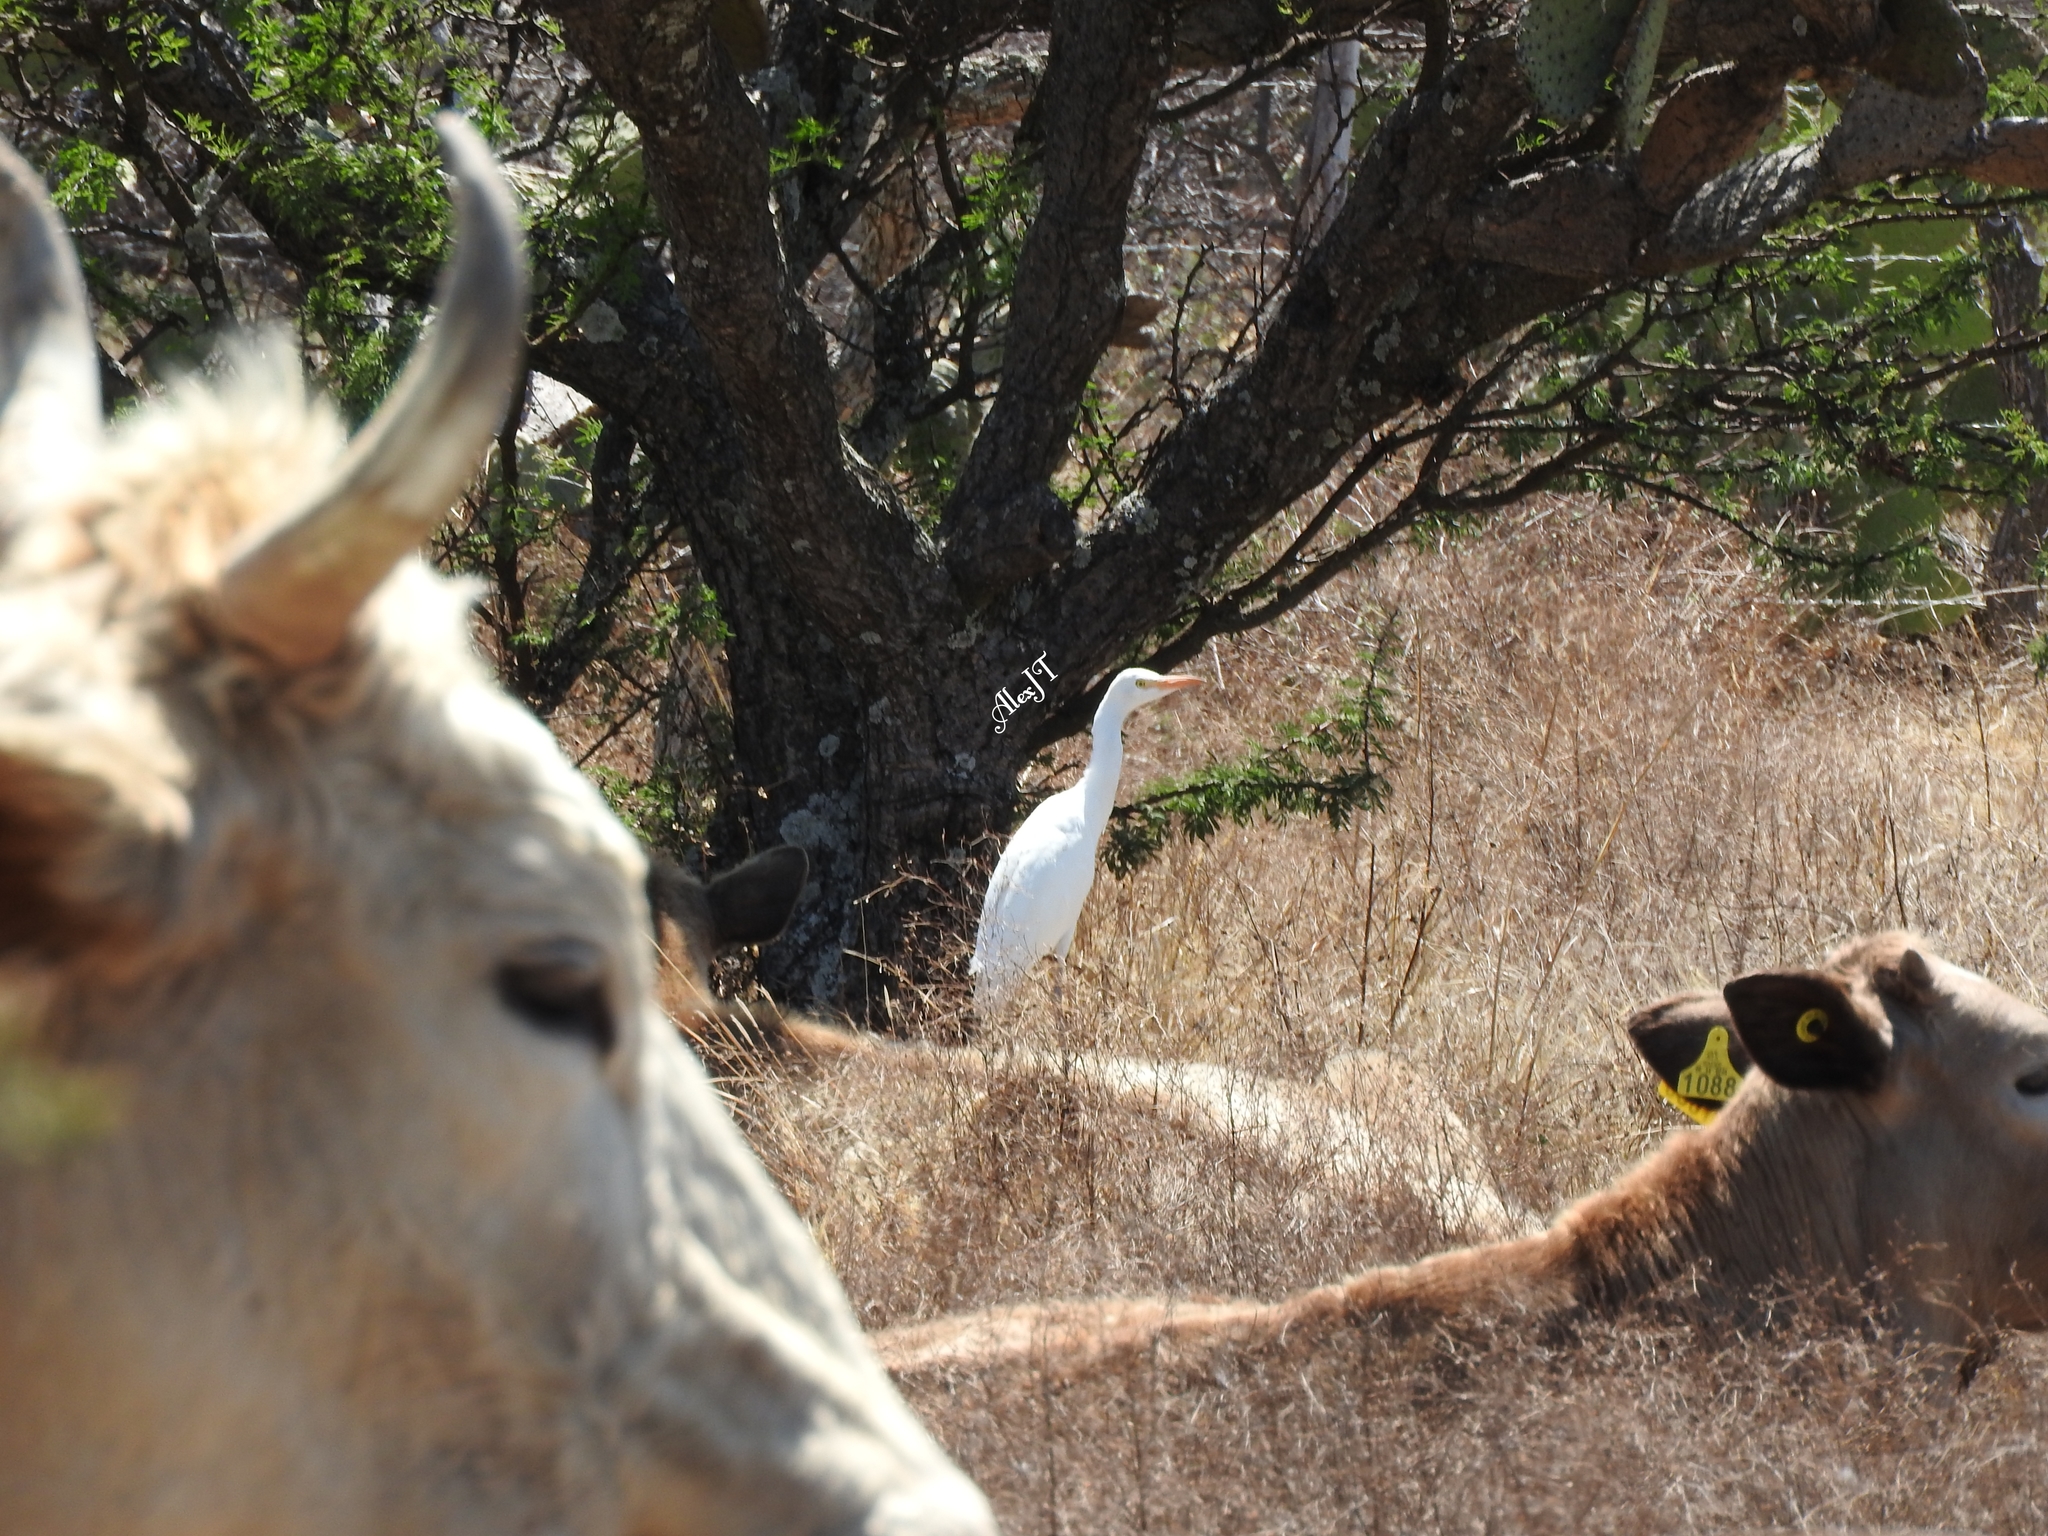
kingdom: Animalia
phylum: Chordata
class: Aves
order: Pelecaniformes
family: Ardeidae
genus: Bubulcus
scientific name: Bubulcus ibis
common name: Cattle egret
